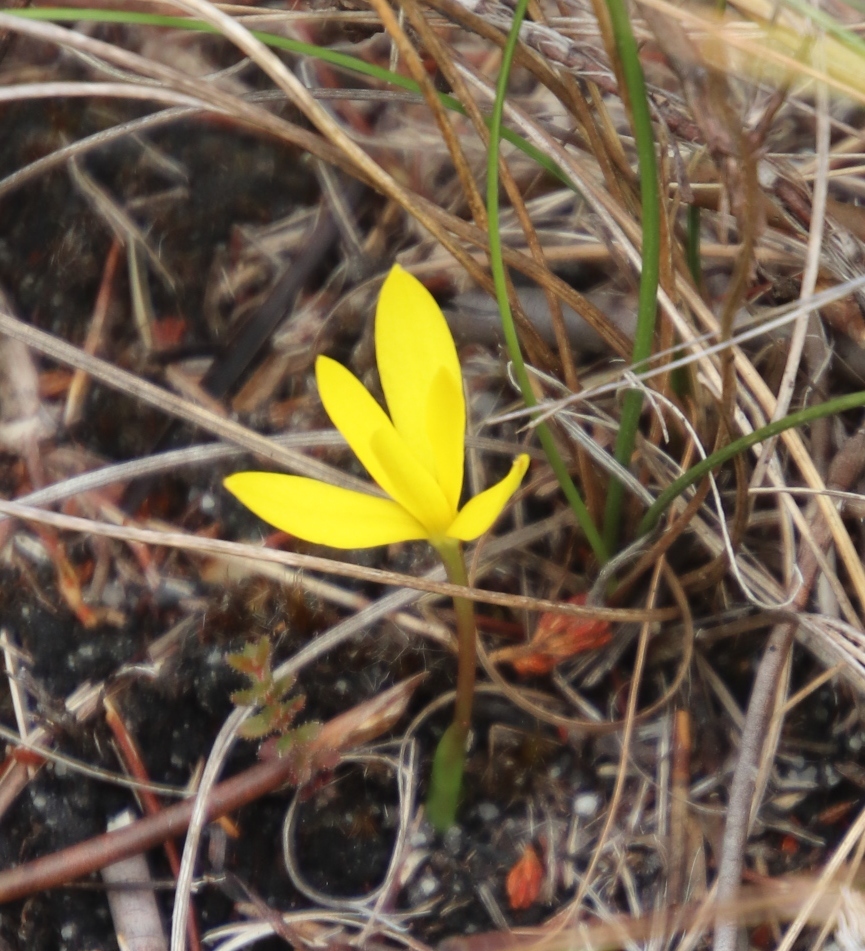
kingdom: Plantae
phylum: Tracheophyta
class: Liliopsida
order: Asparagales
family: Hypoxidaceae
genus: Pauridia
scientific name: Pauridia monophylla
